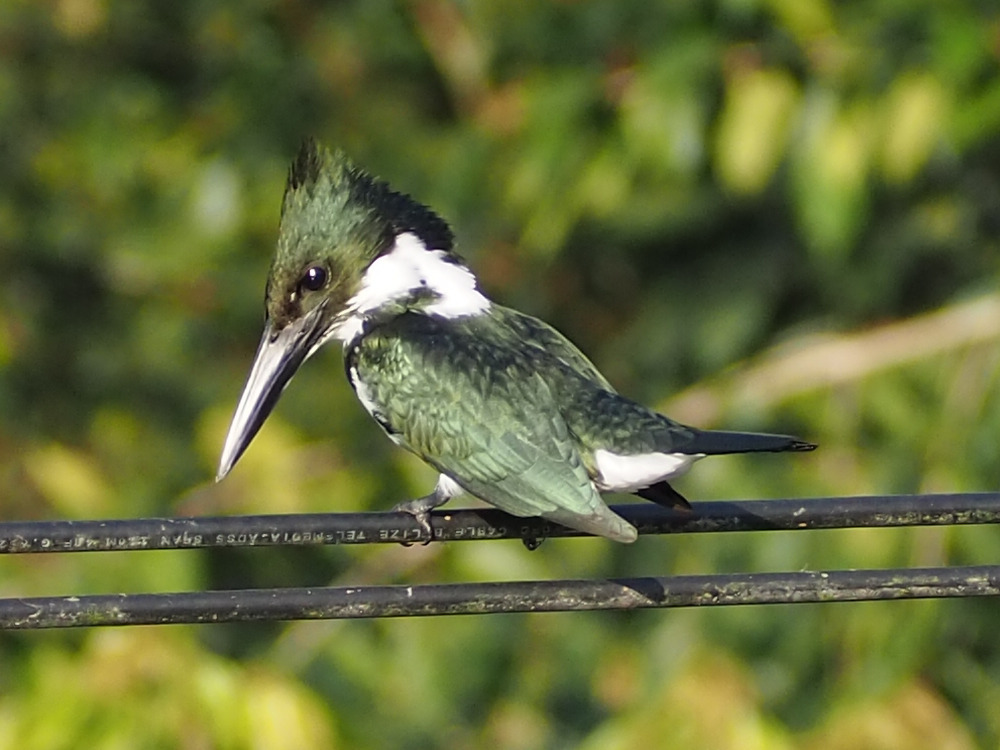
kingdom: Animalia
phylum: Chordata
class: Aves
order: Coraciiformes
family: Alcedinidae
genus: Chloroceryle
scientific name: Chloroceryle amazona
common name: Amazon kingfisher
